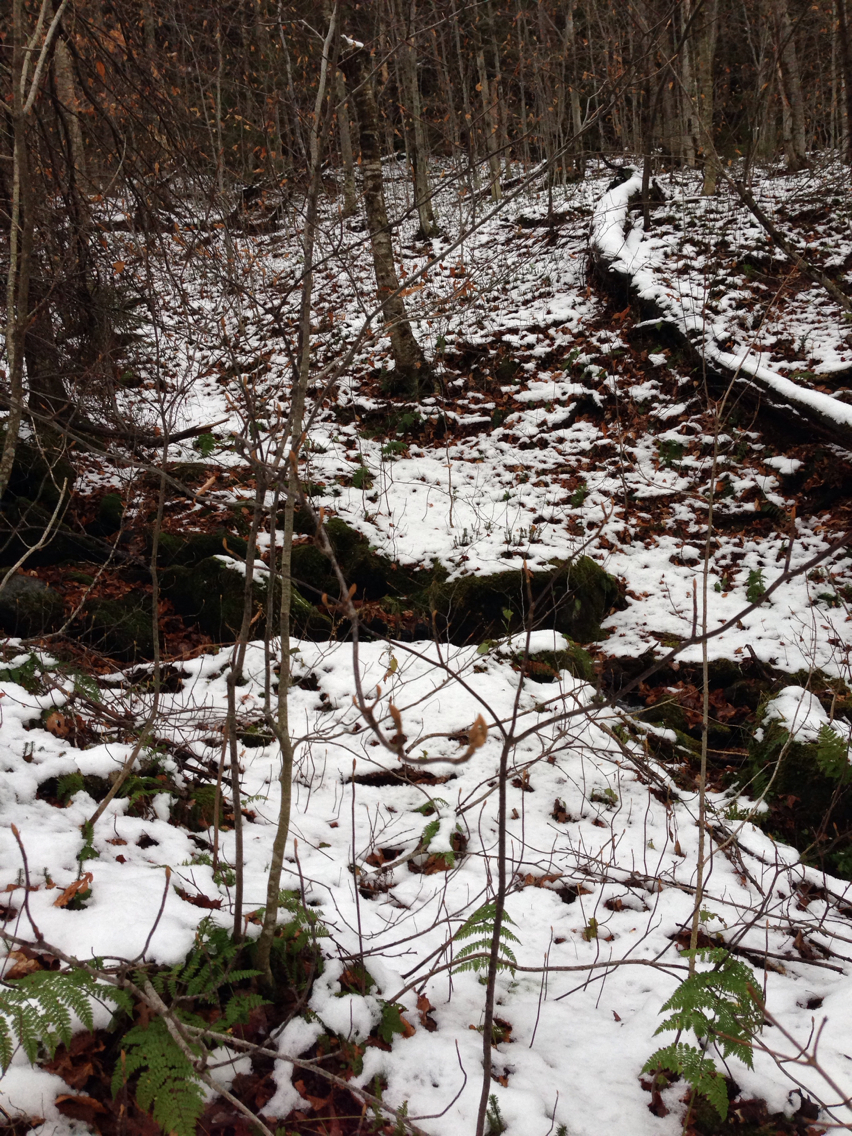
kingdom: Plantae
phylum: Tracheophyta
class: Magnoliopsida
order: Dipsacales
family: Viburnaceae
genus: Viburnum
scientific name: Viburnum lantanoides
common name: Hobblebush
